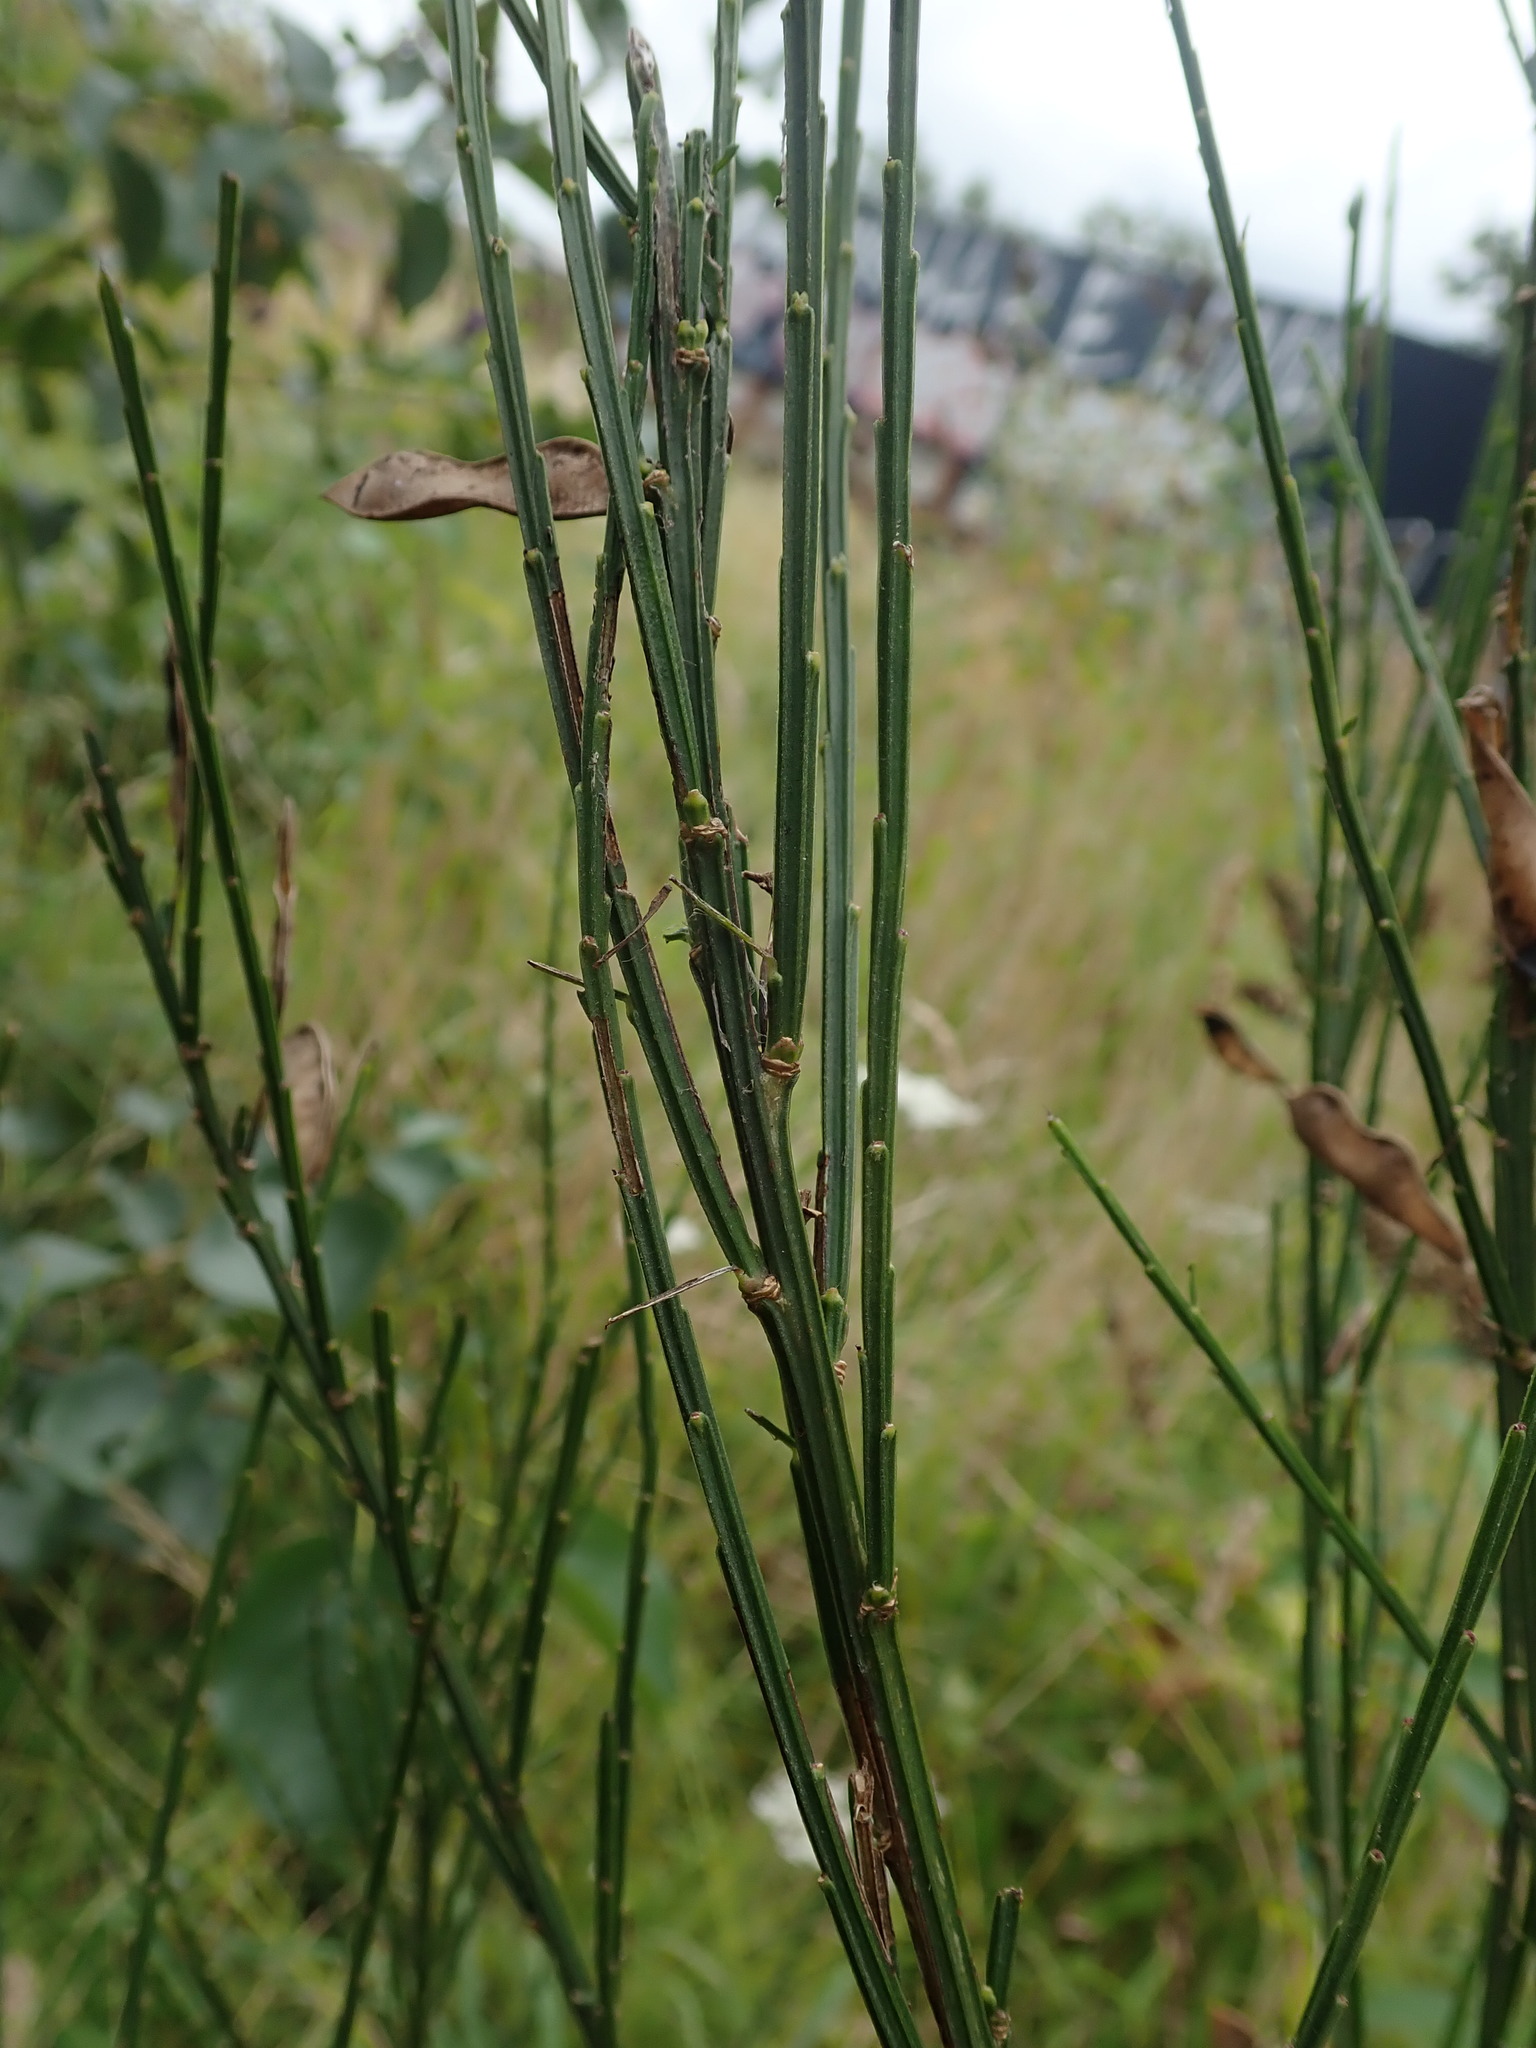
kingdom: Plantae
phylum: Tracheophyta
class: Magnoliopsida
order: Fabales
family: Fabaceae
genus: Cytisus
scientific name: Cytisus scoparius
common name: Scotch broom
